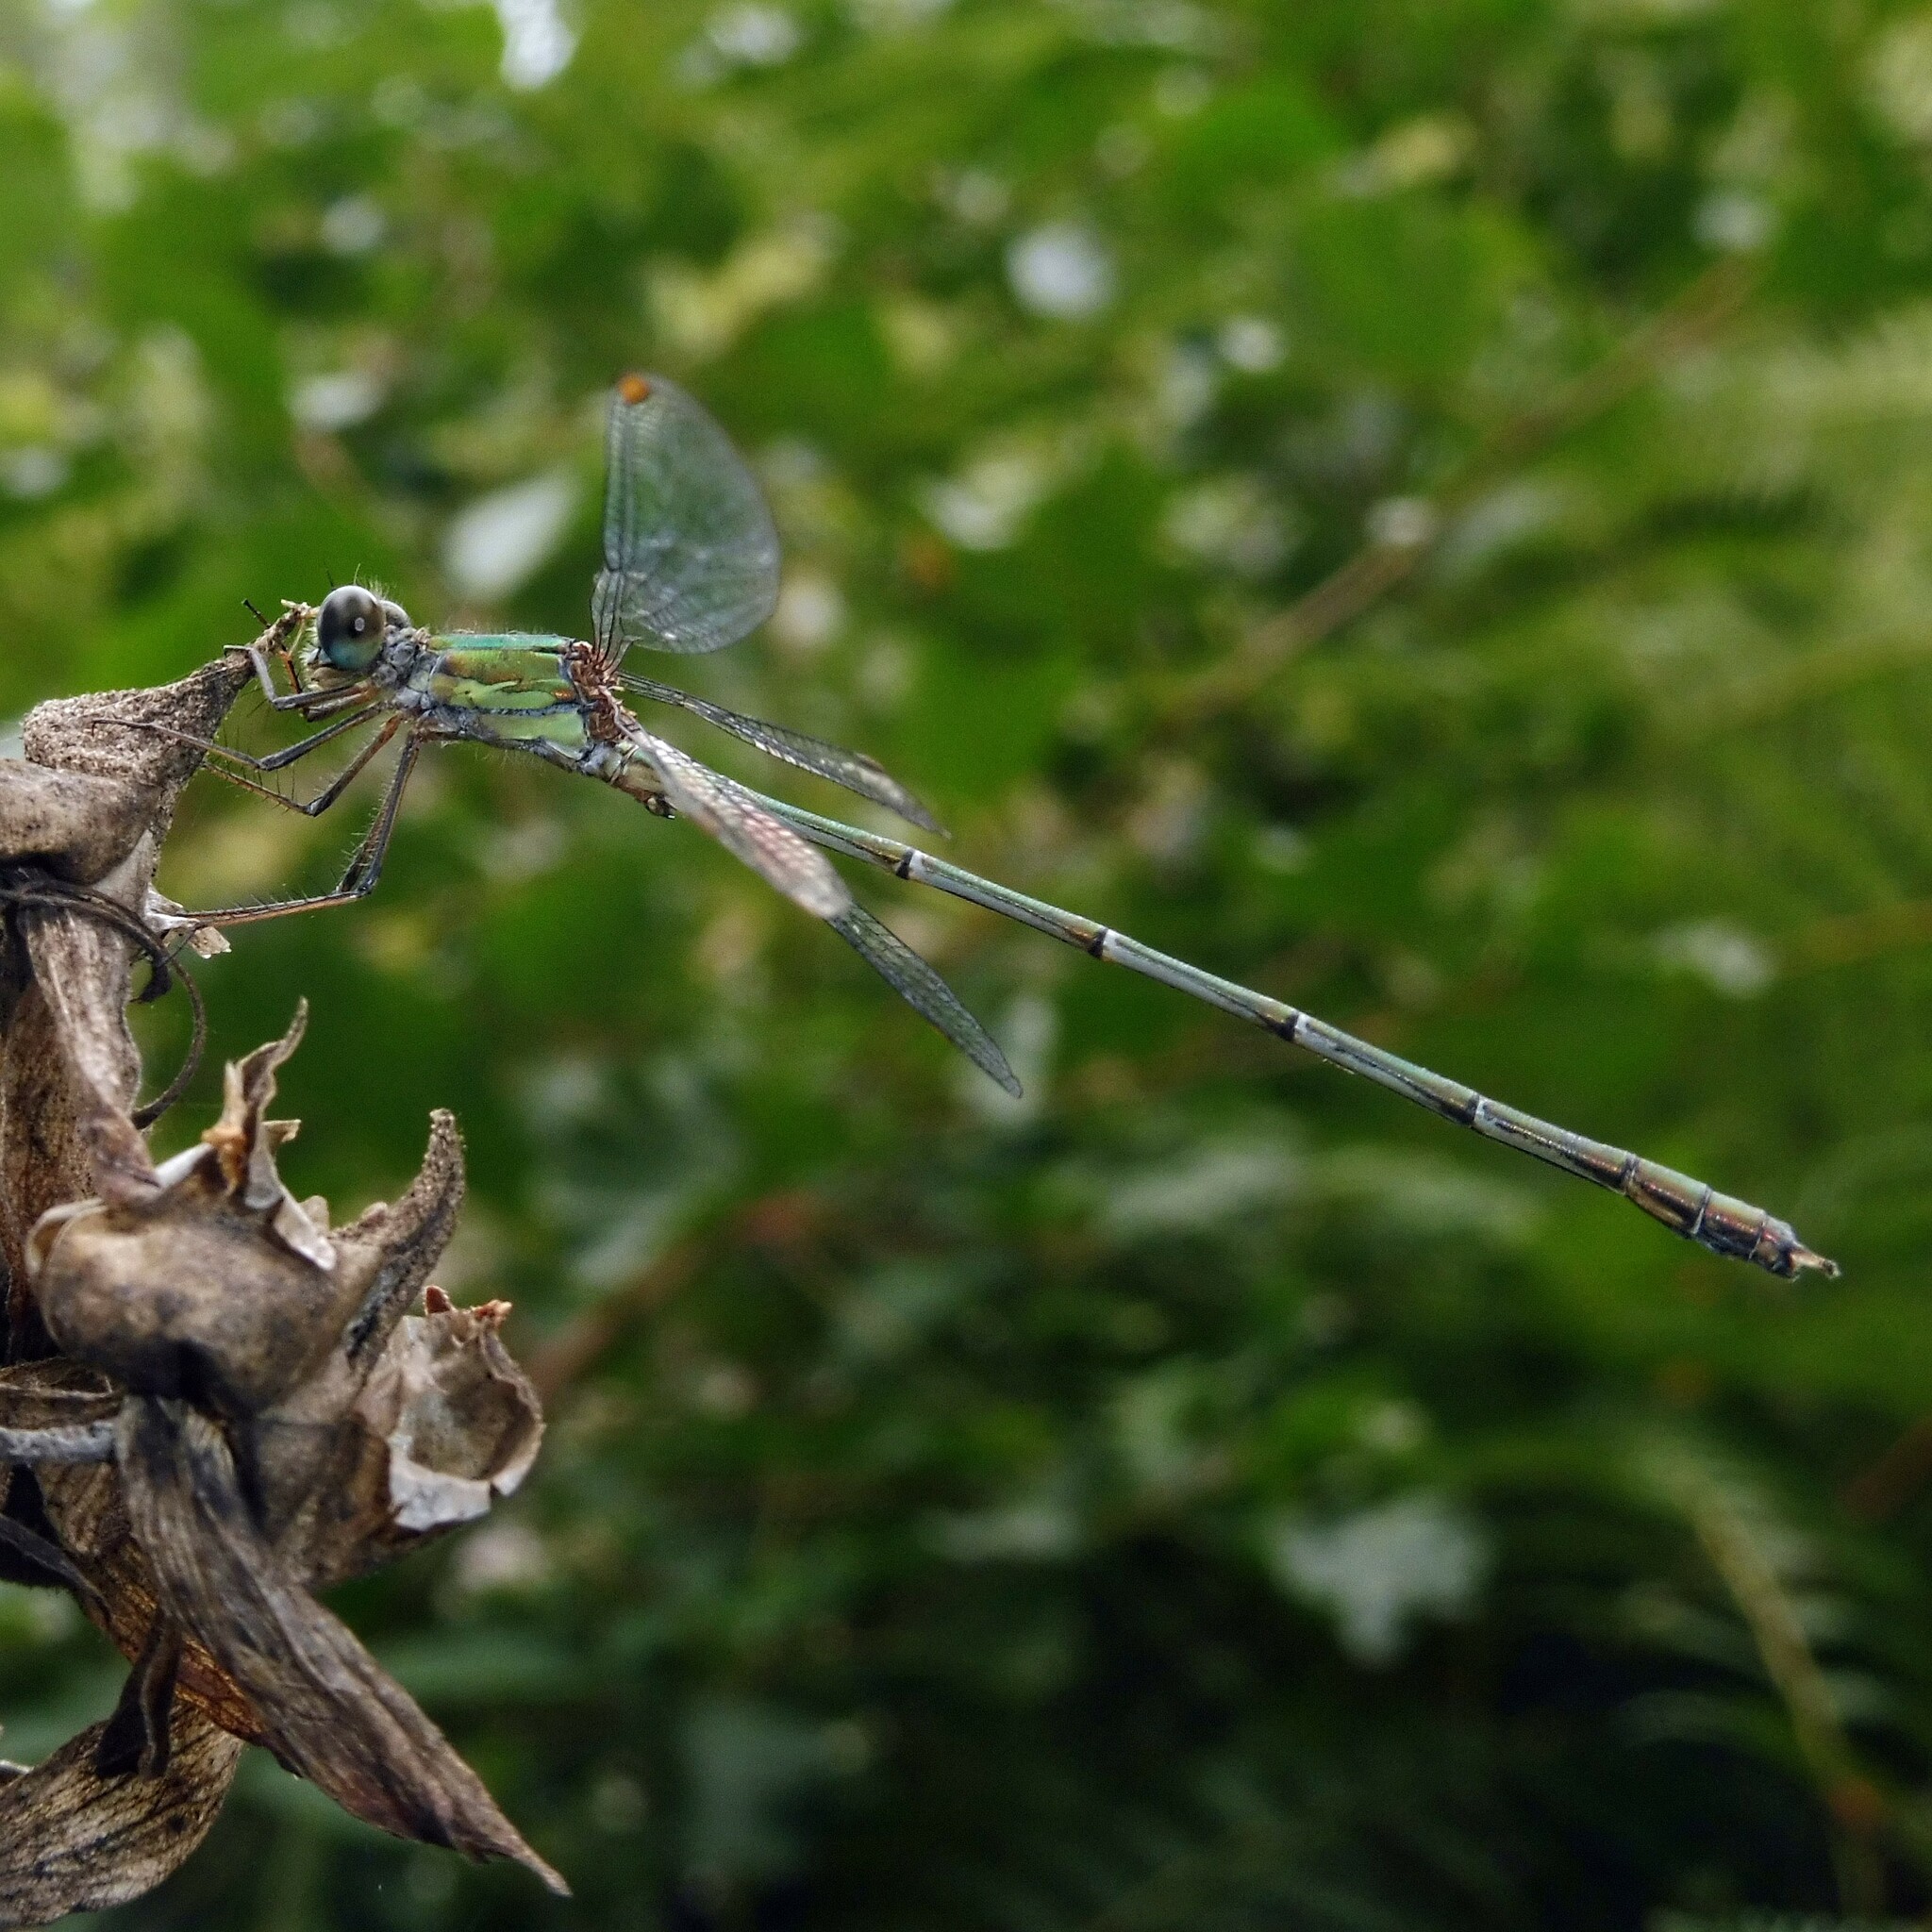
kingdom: Animalia
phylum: Arthropoda
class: Insecta
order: Odonata
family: Lestidae
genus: Chalcolestes
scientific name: Chalcolestes viridis
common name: Green emerald damselfly
